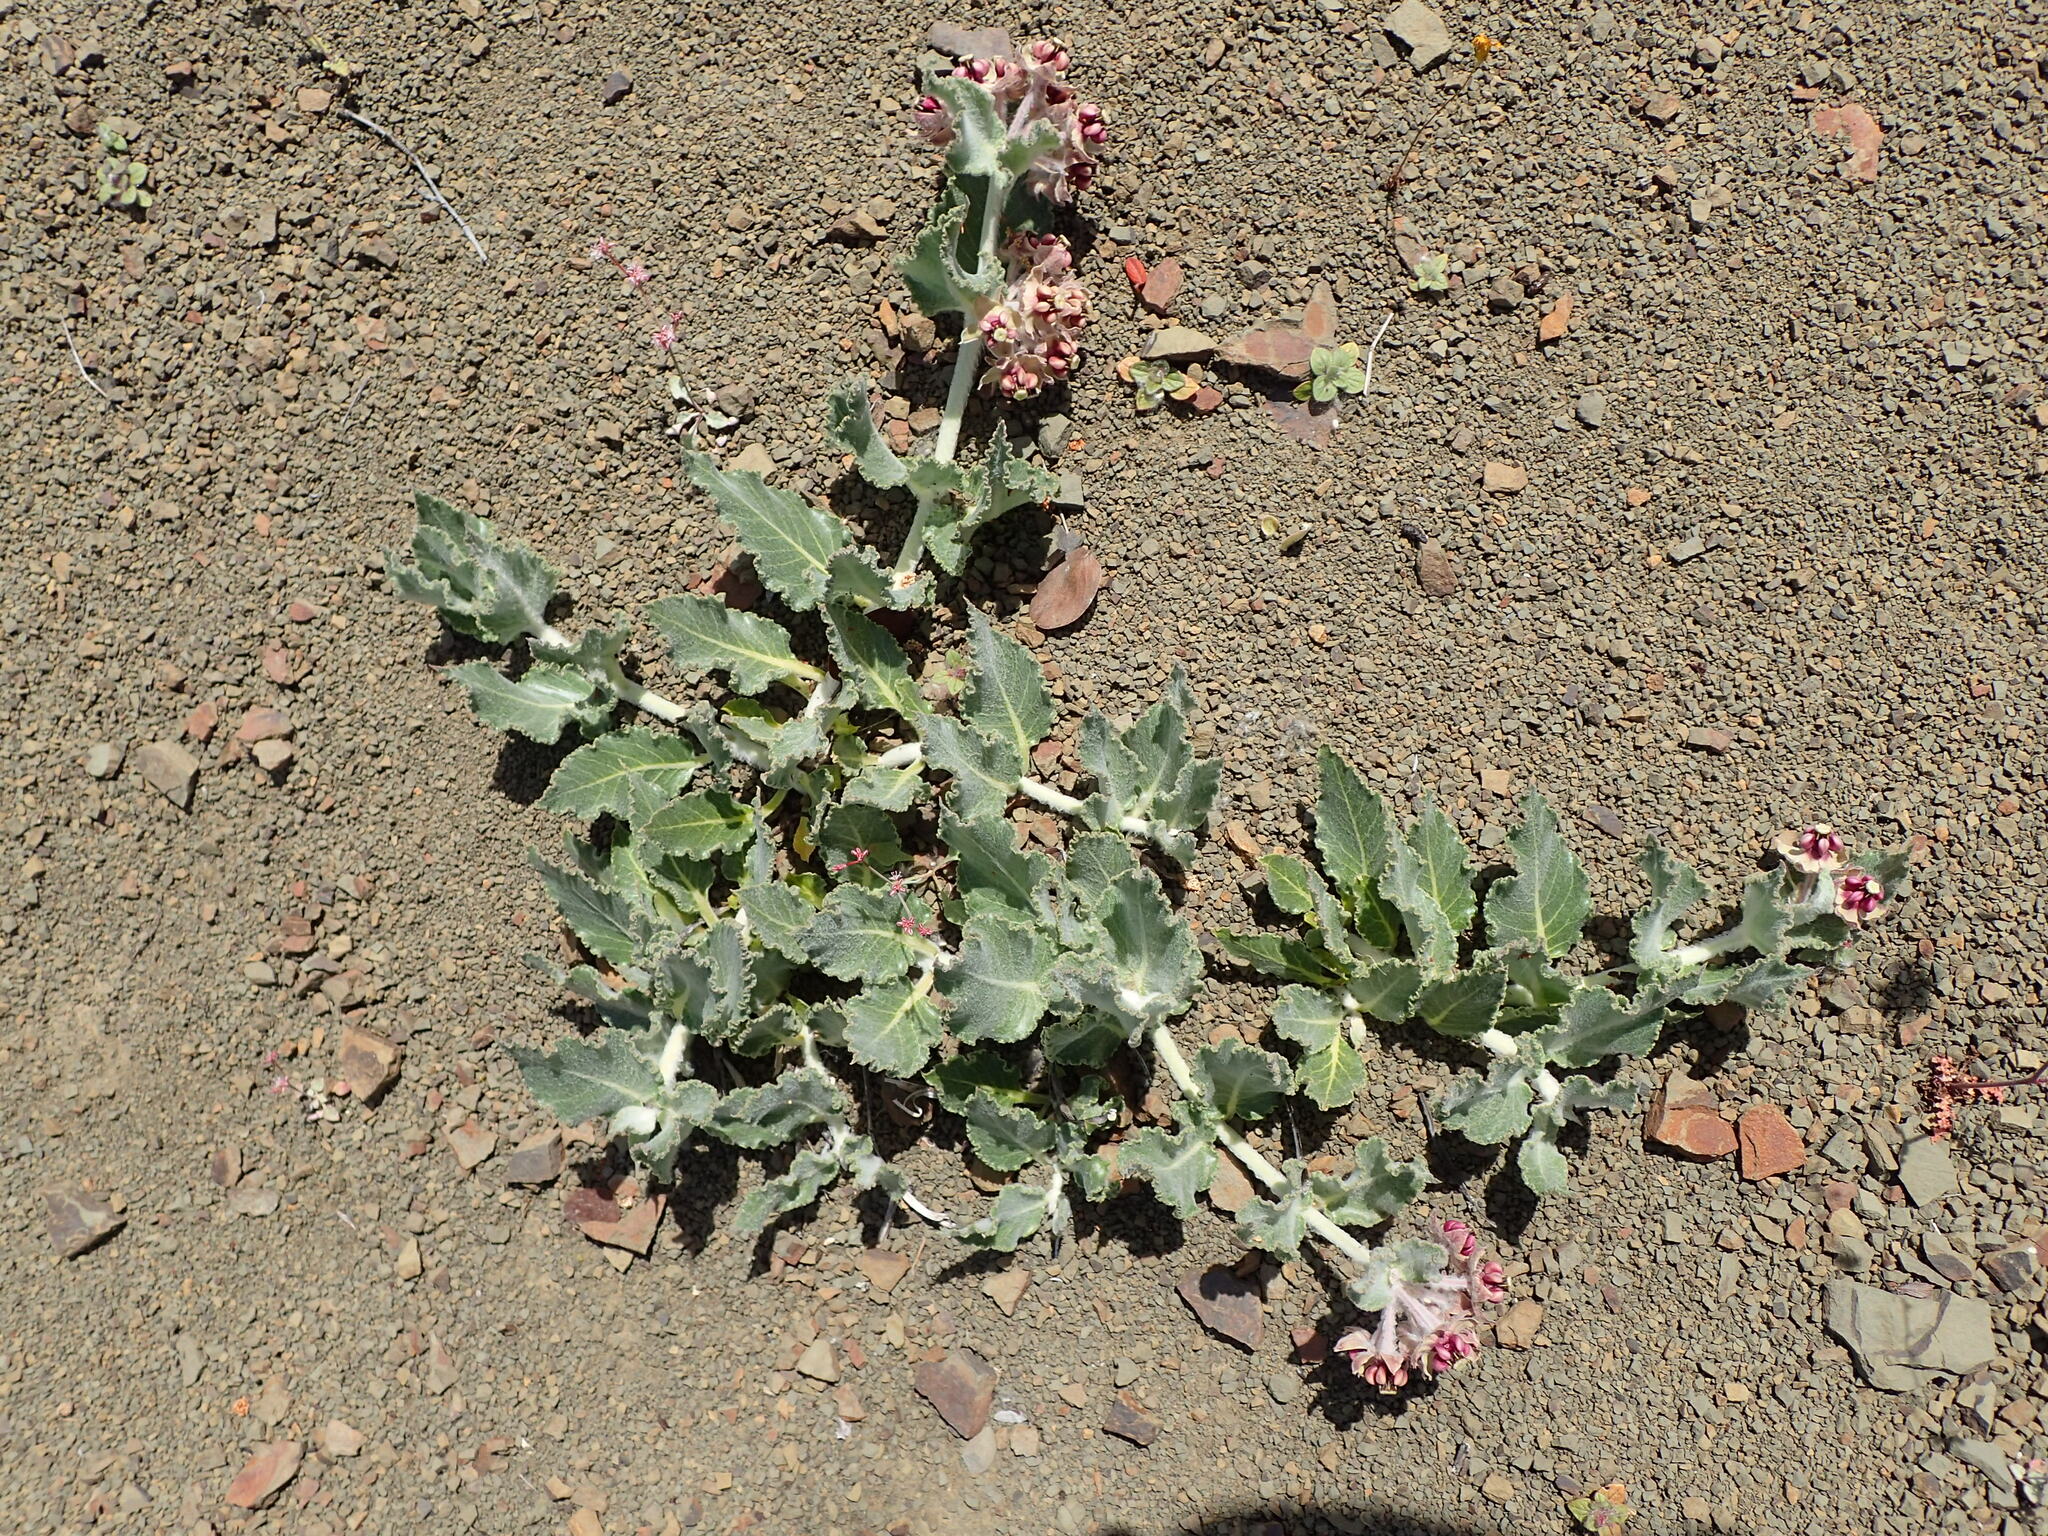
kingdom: Plantae
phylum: Tracheophyta
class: Magnoliopsida
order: Gentianales
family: Apocynaceae
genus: Asclepias
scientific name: Asclepias californica
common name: California milkweed
